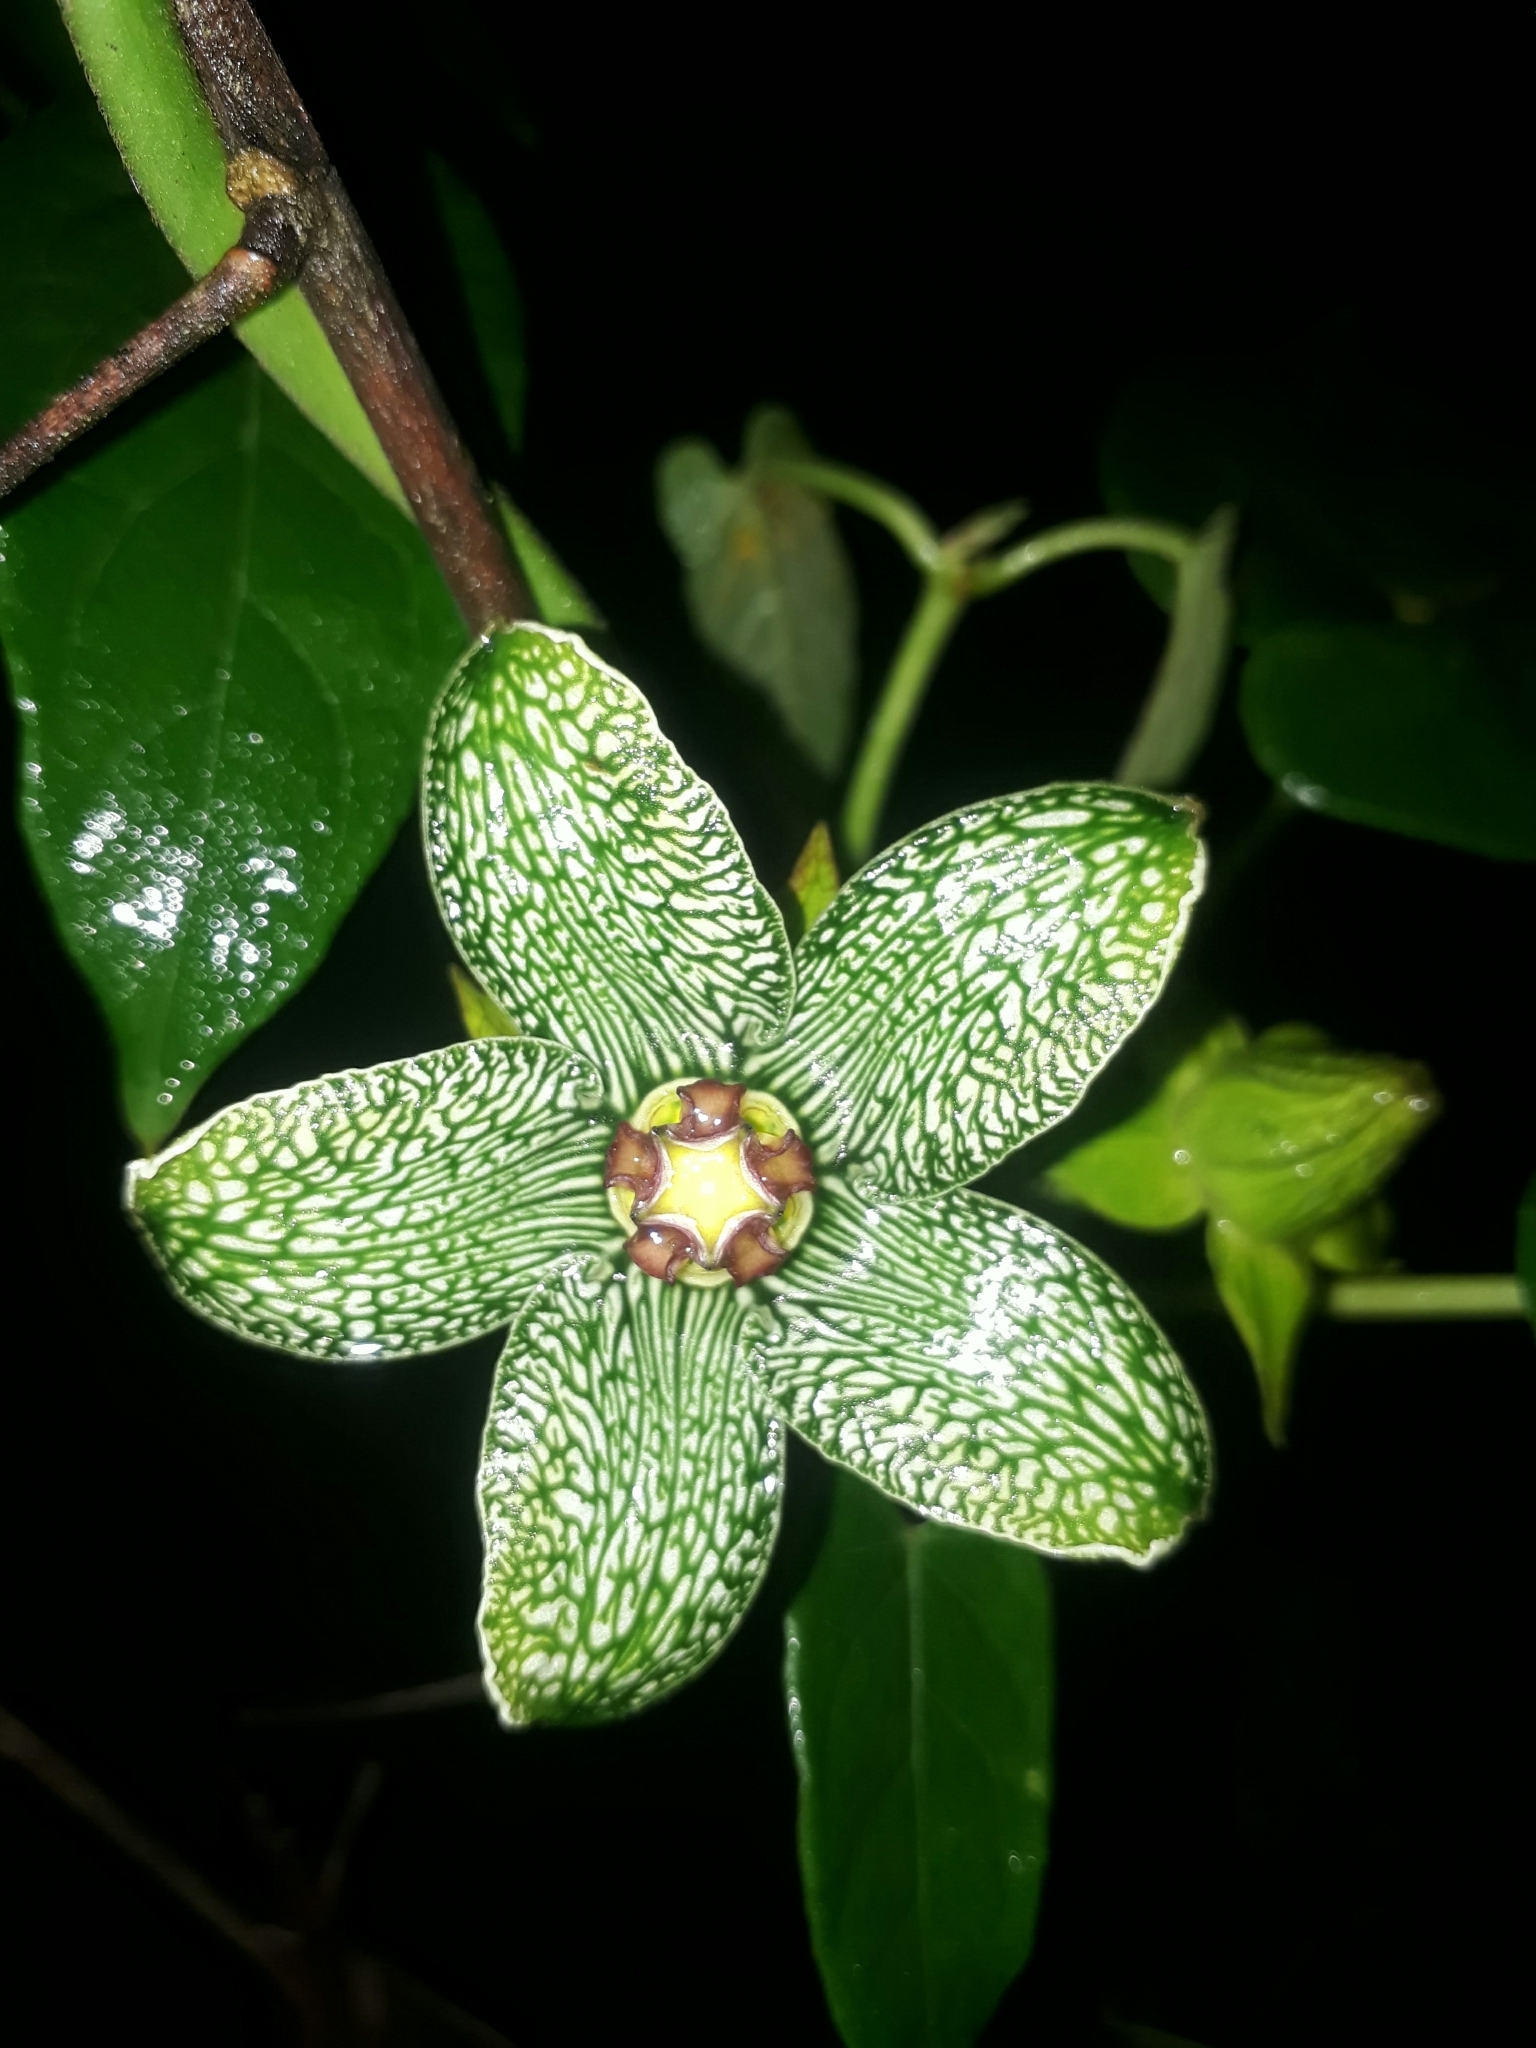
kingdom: Plantae
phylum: Tracheophyta
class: Magnoliopsida
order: Gentianales
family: Apocynaceae
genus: Gonolobus
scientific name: Gonolobus incerianus
